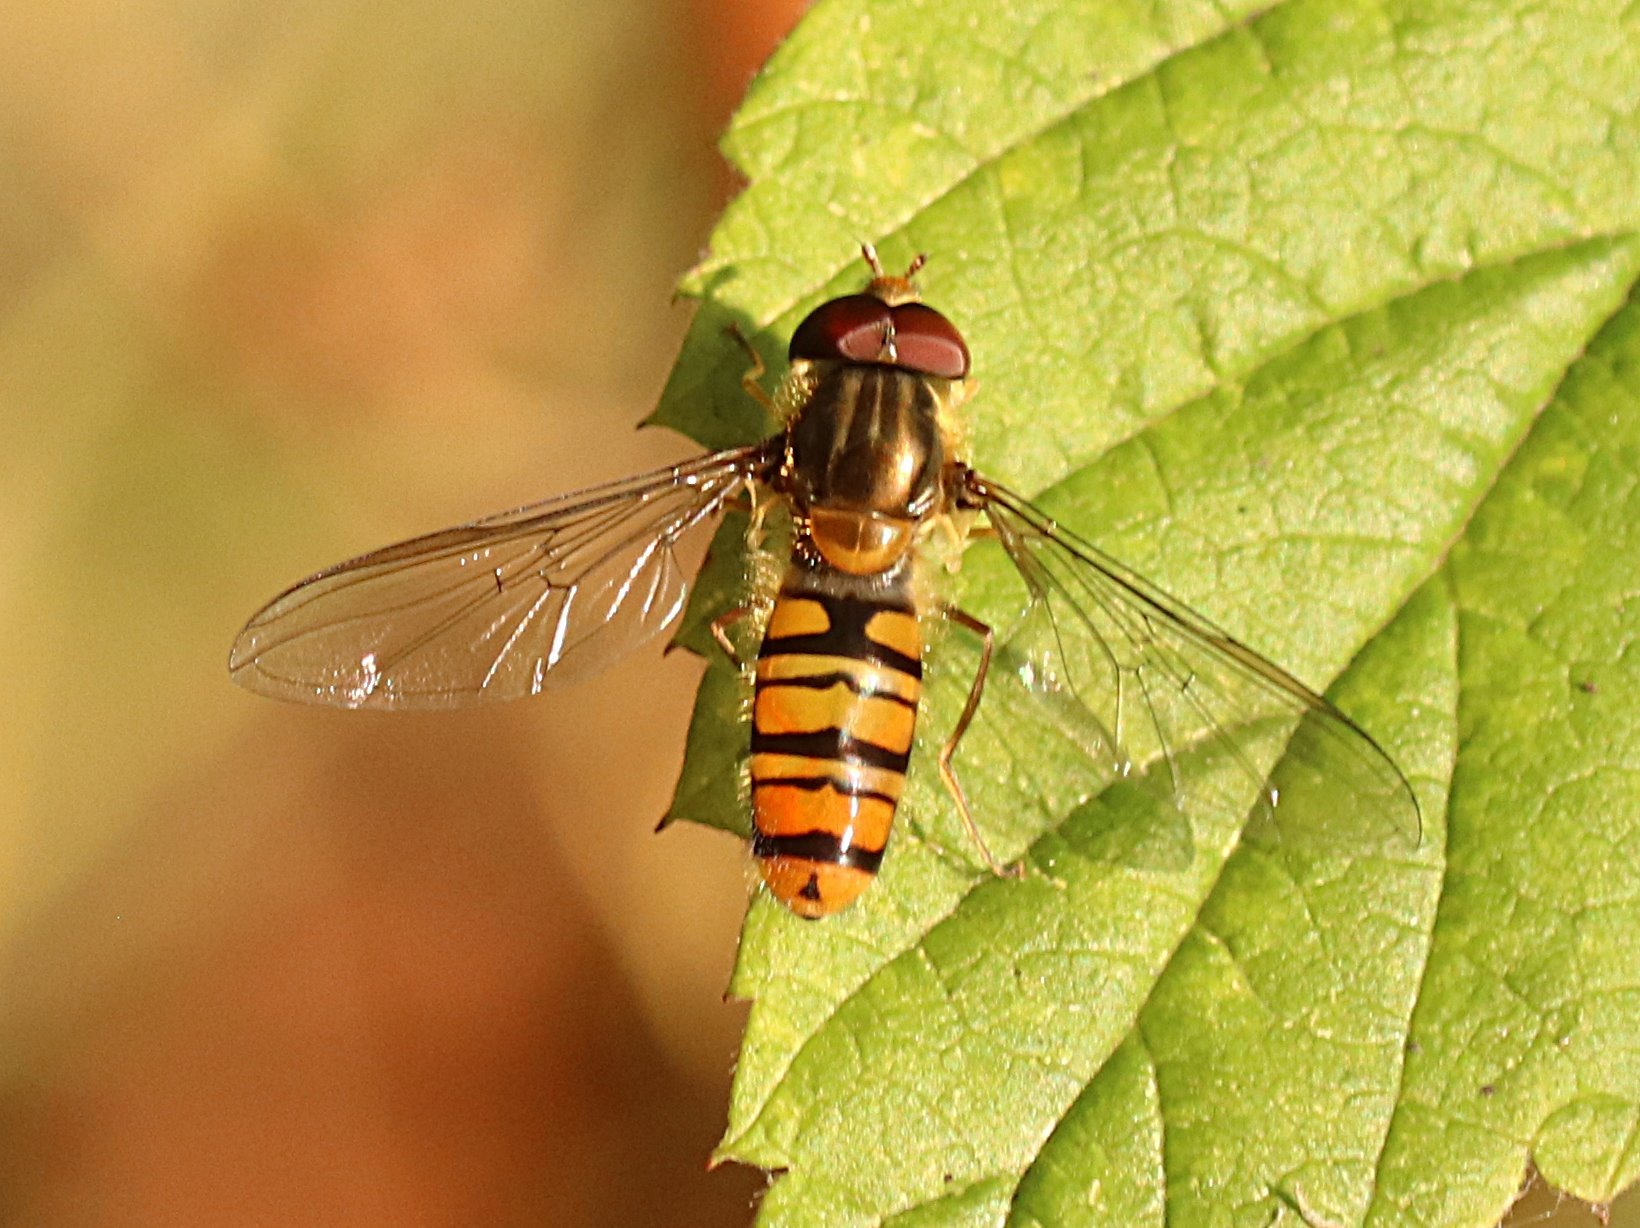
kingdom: Animalia
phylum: Arthropoda
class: Insecta
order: Diptera
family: Syrphidae
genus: Episyrphus
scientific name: Episyrphus balteatus
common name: Marmalade hoverfly
